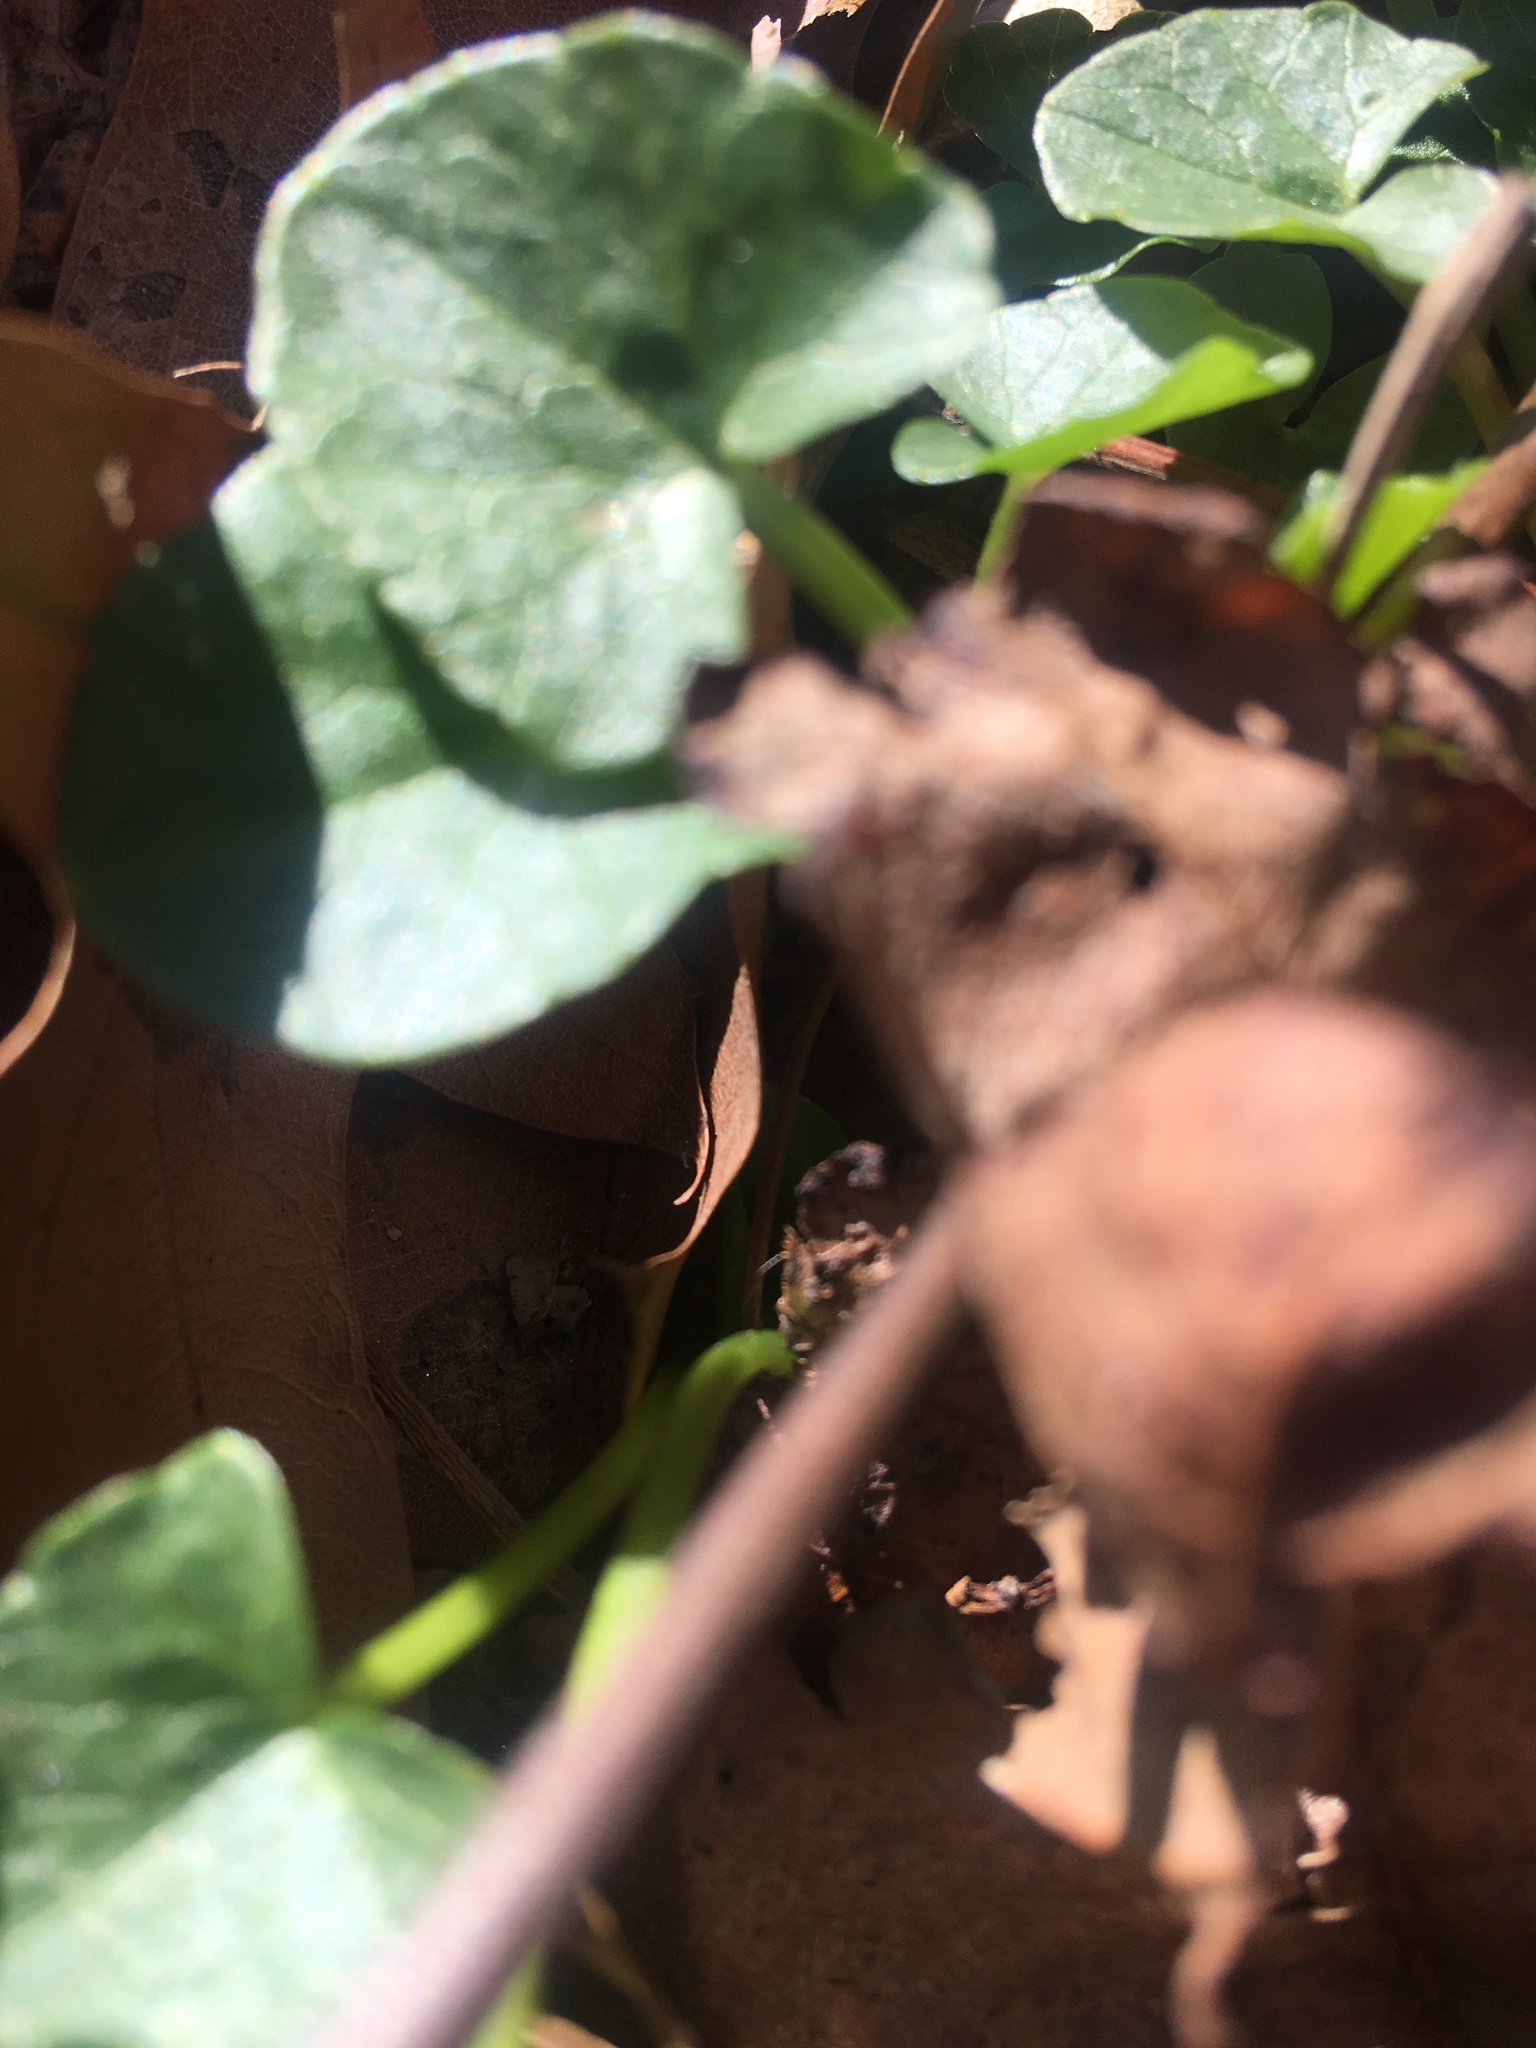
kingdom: Plantae
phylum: Tracheophyta
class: Magnoliopsida
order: Ranunculales
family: Ranunculaceae
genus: Ficaria
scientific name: Ficaria verna
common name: Lesser celandine
